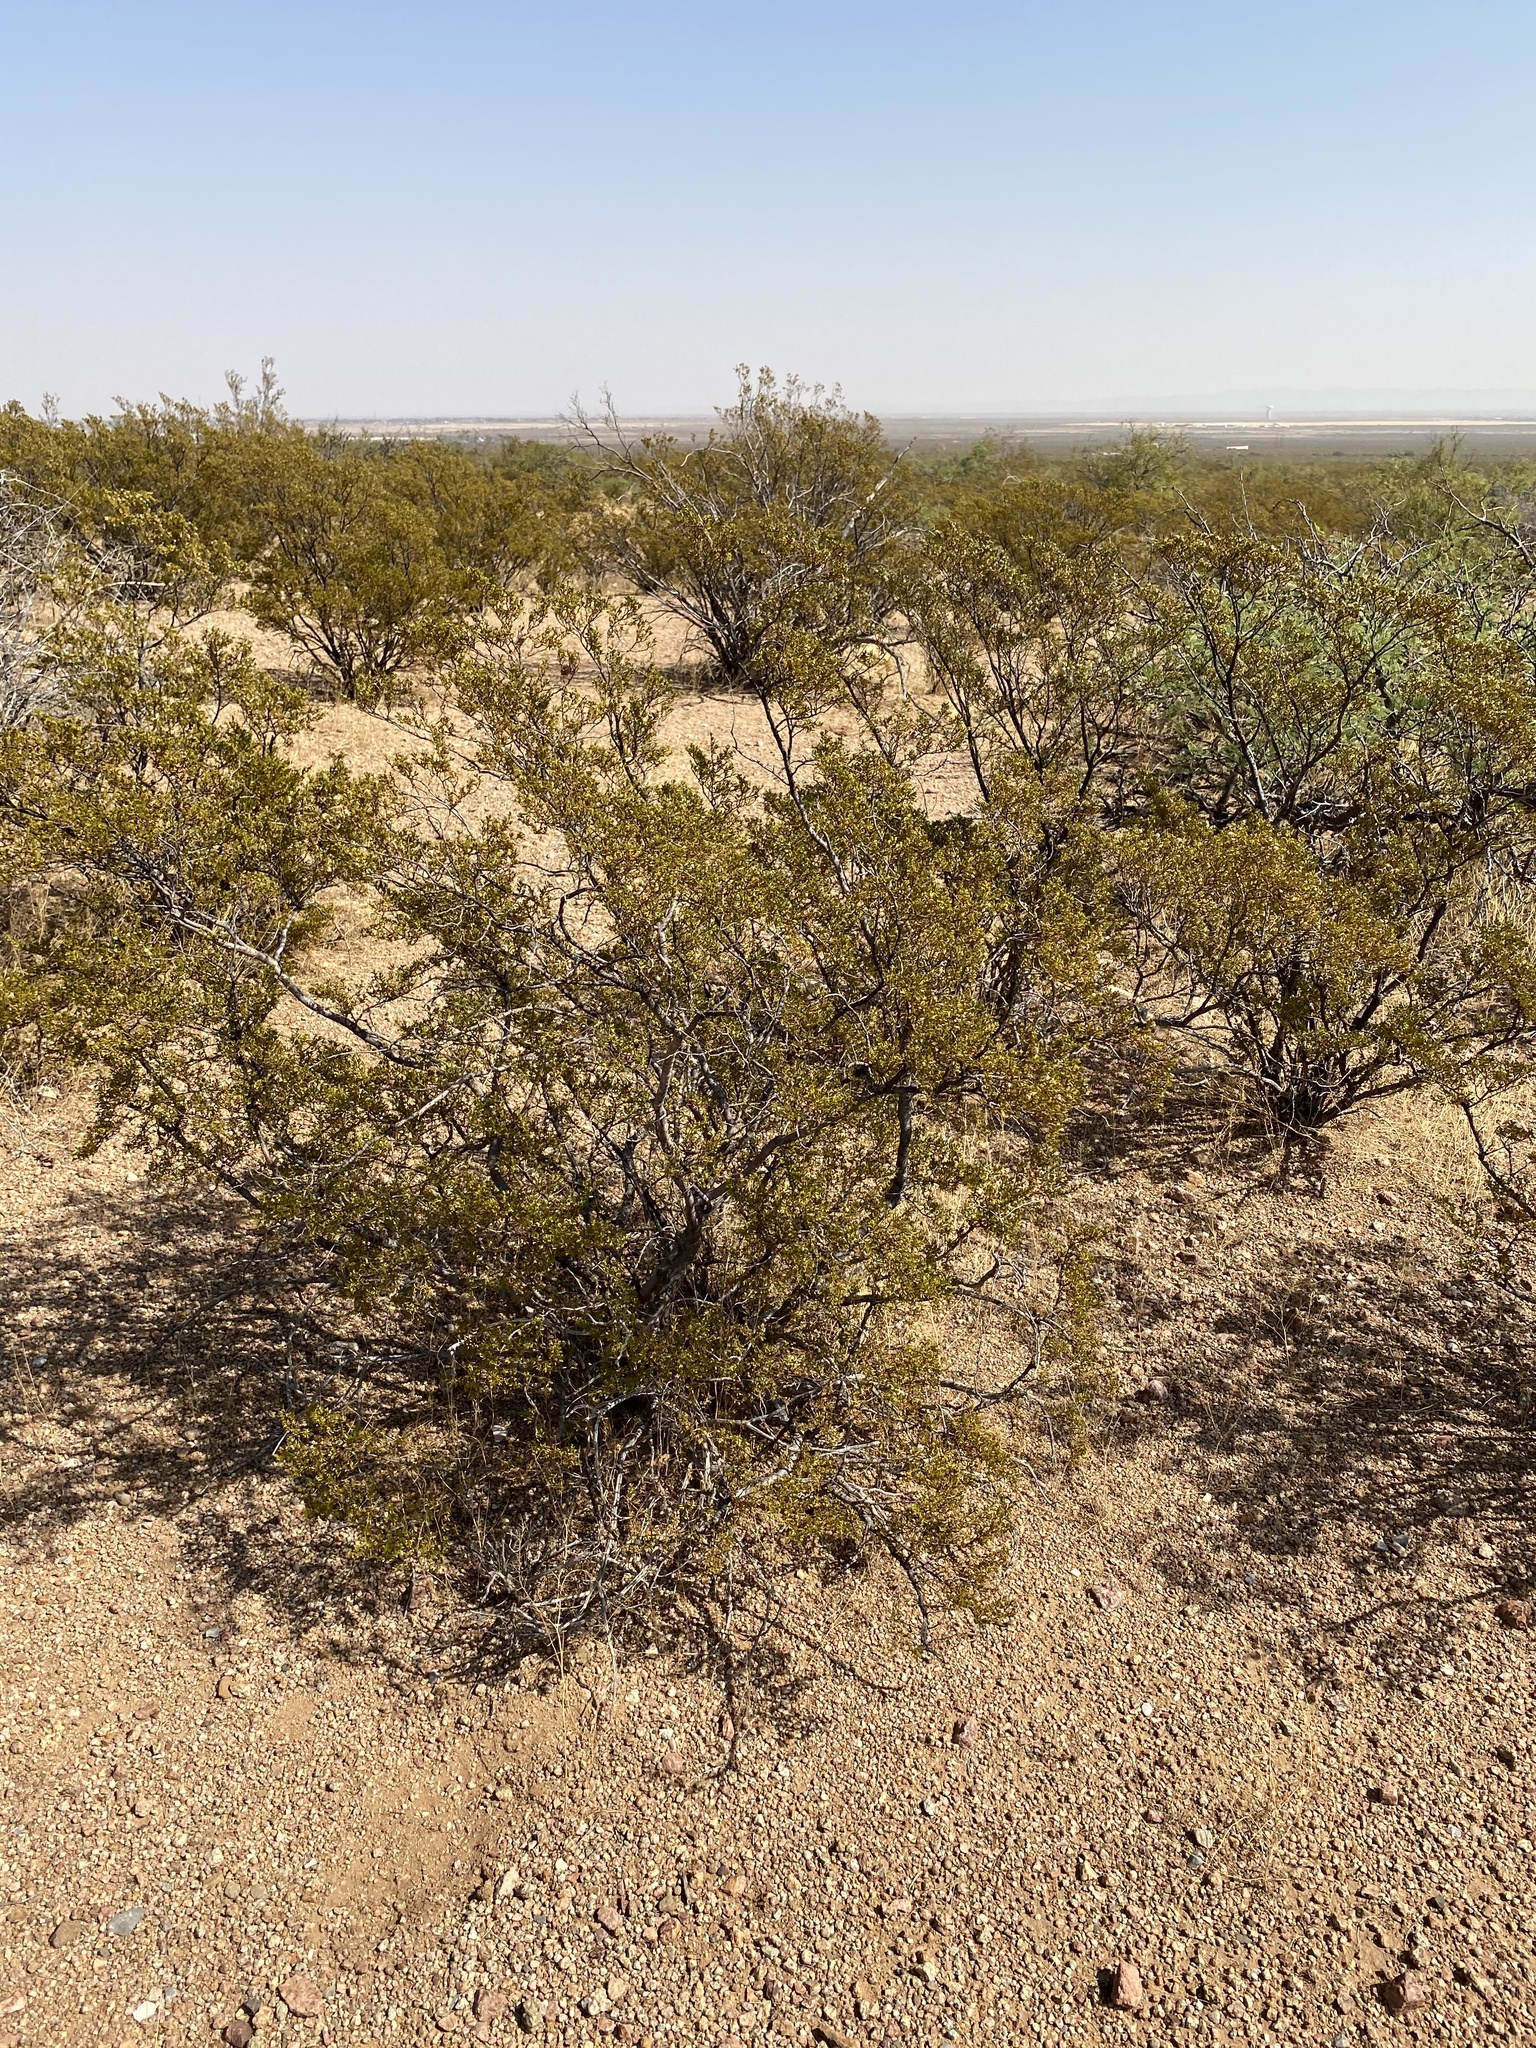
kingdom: Plantae
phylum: Tracheophyta
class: Magnoliopsida
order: Zygophyllales
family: Zygophyllaceae
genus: Larrea
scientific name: Larrea tridentata
